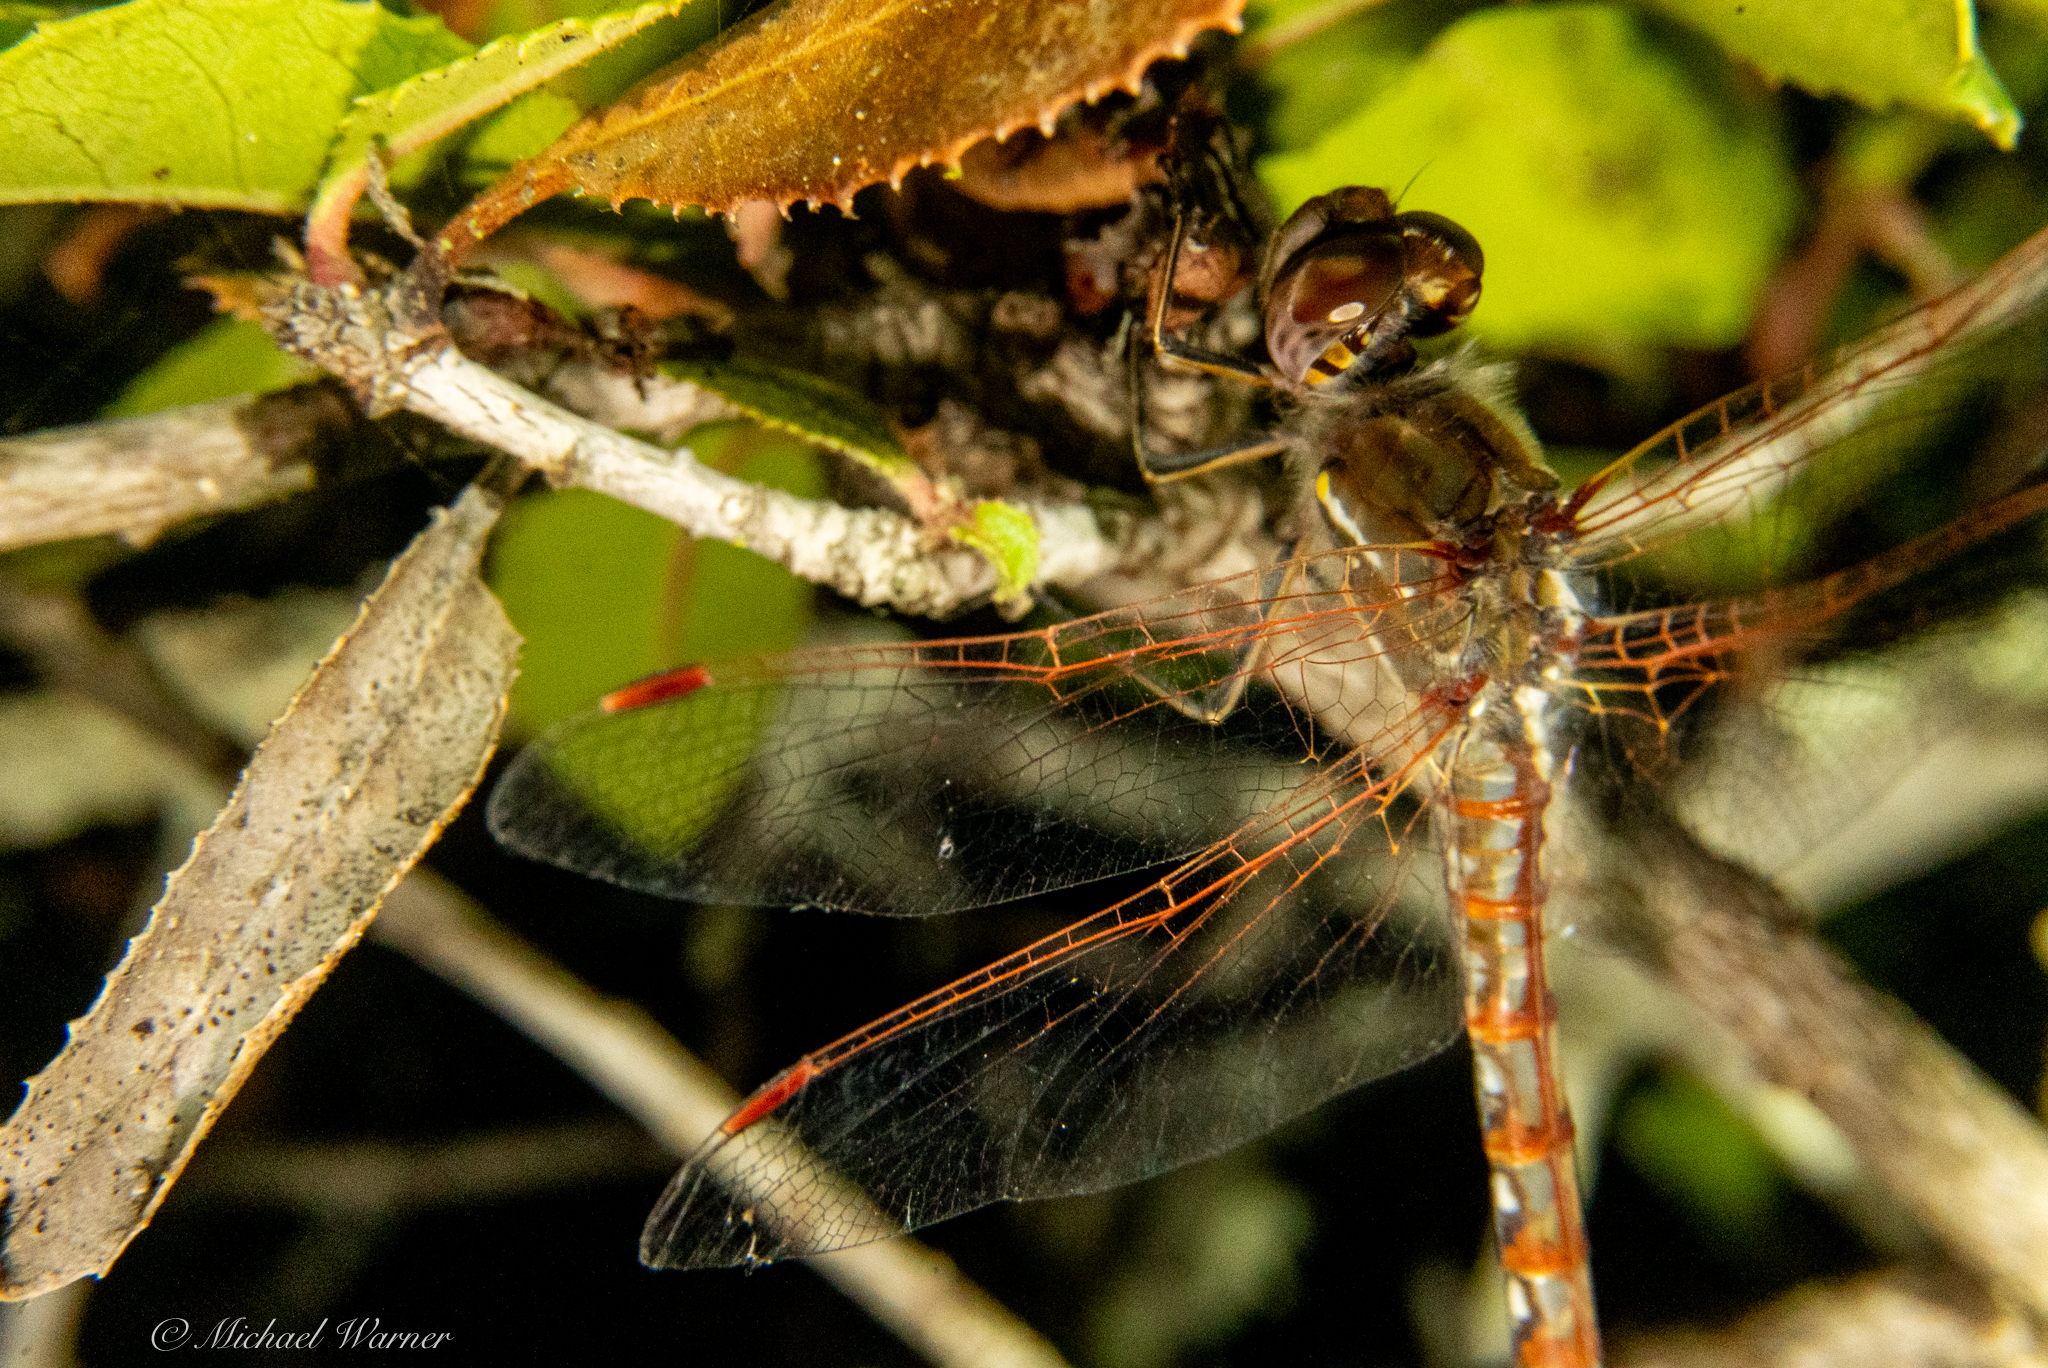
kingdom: Animalia
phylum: Arthropoda
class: Insecta
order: Odonata
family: Libellulidae
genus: Sympetrum
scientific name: Sympetrum corruptum
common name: Variegated meadowhawk
